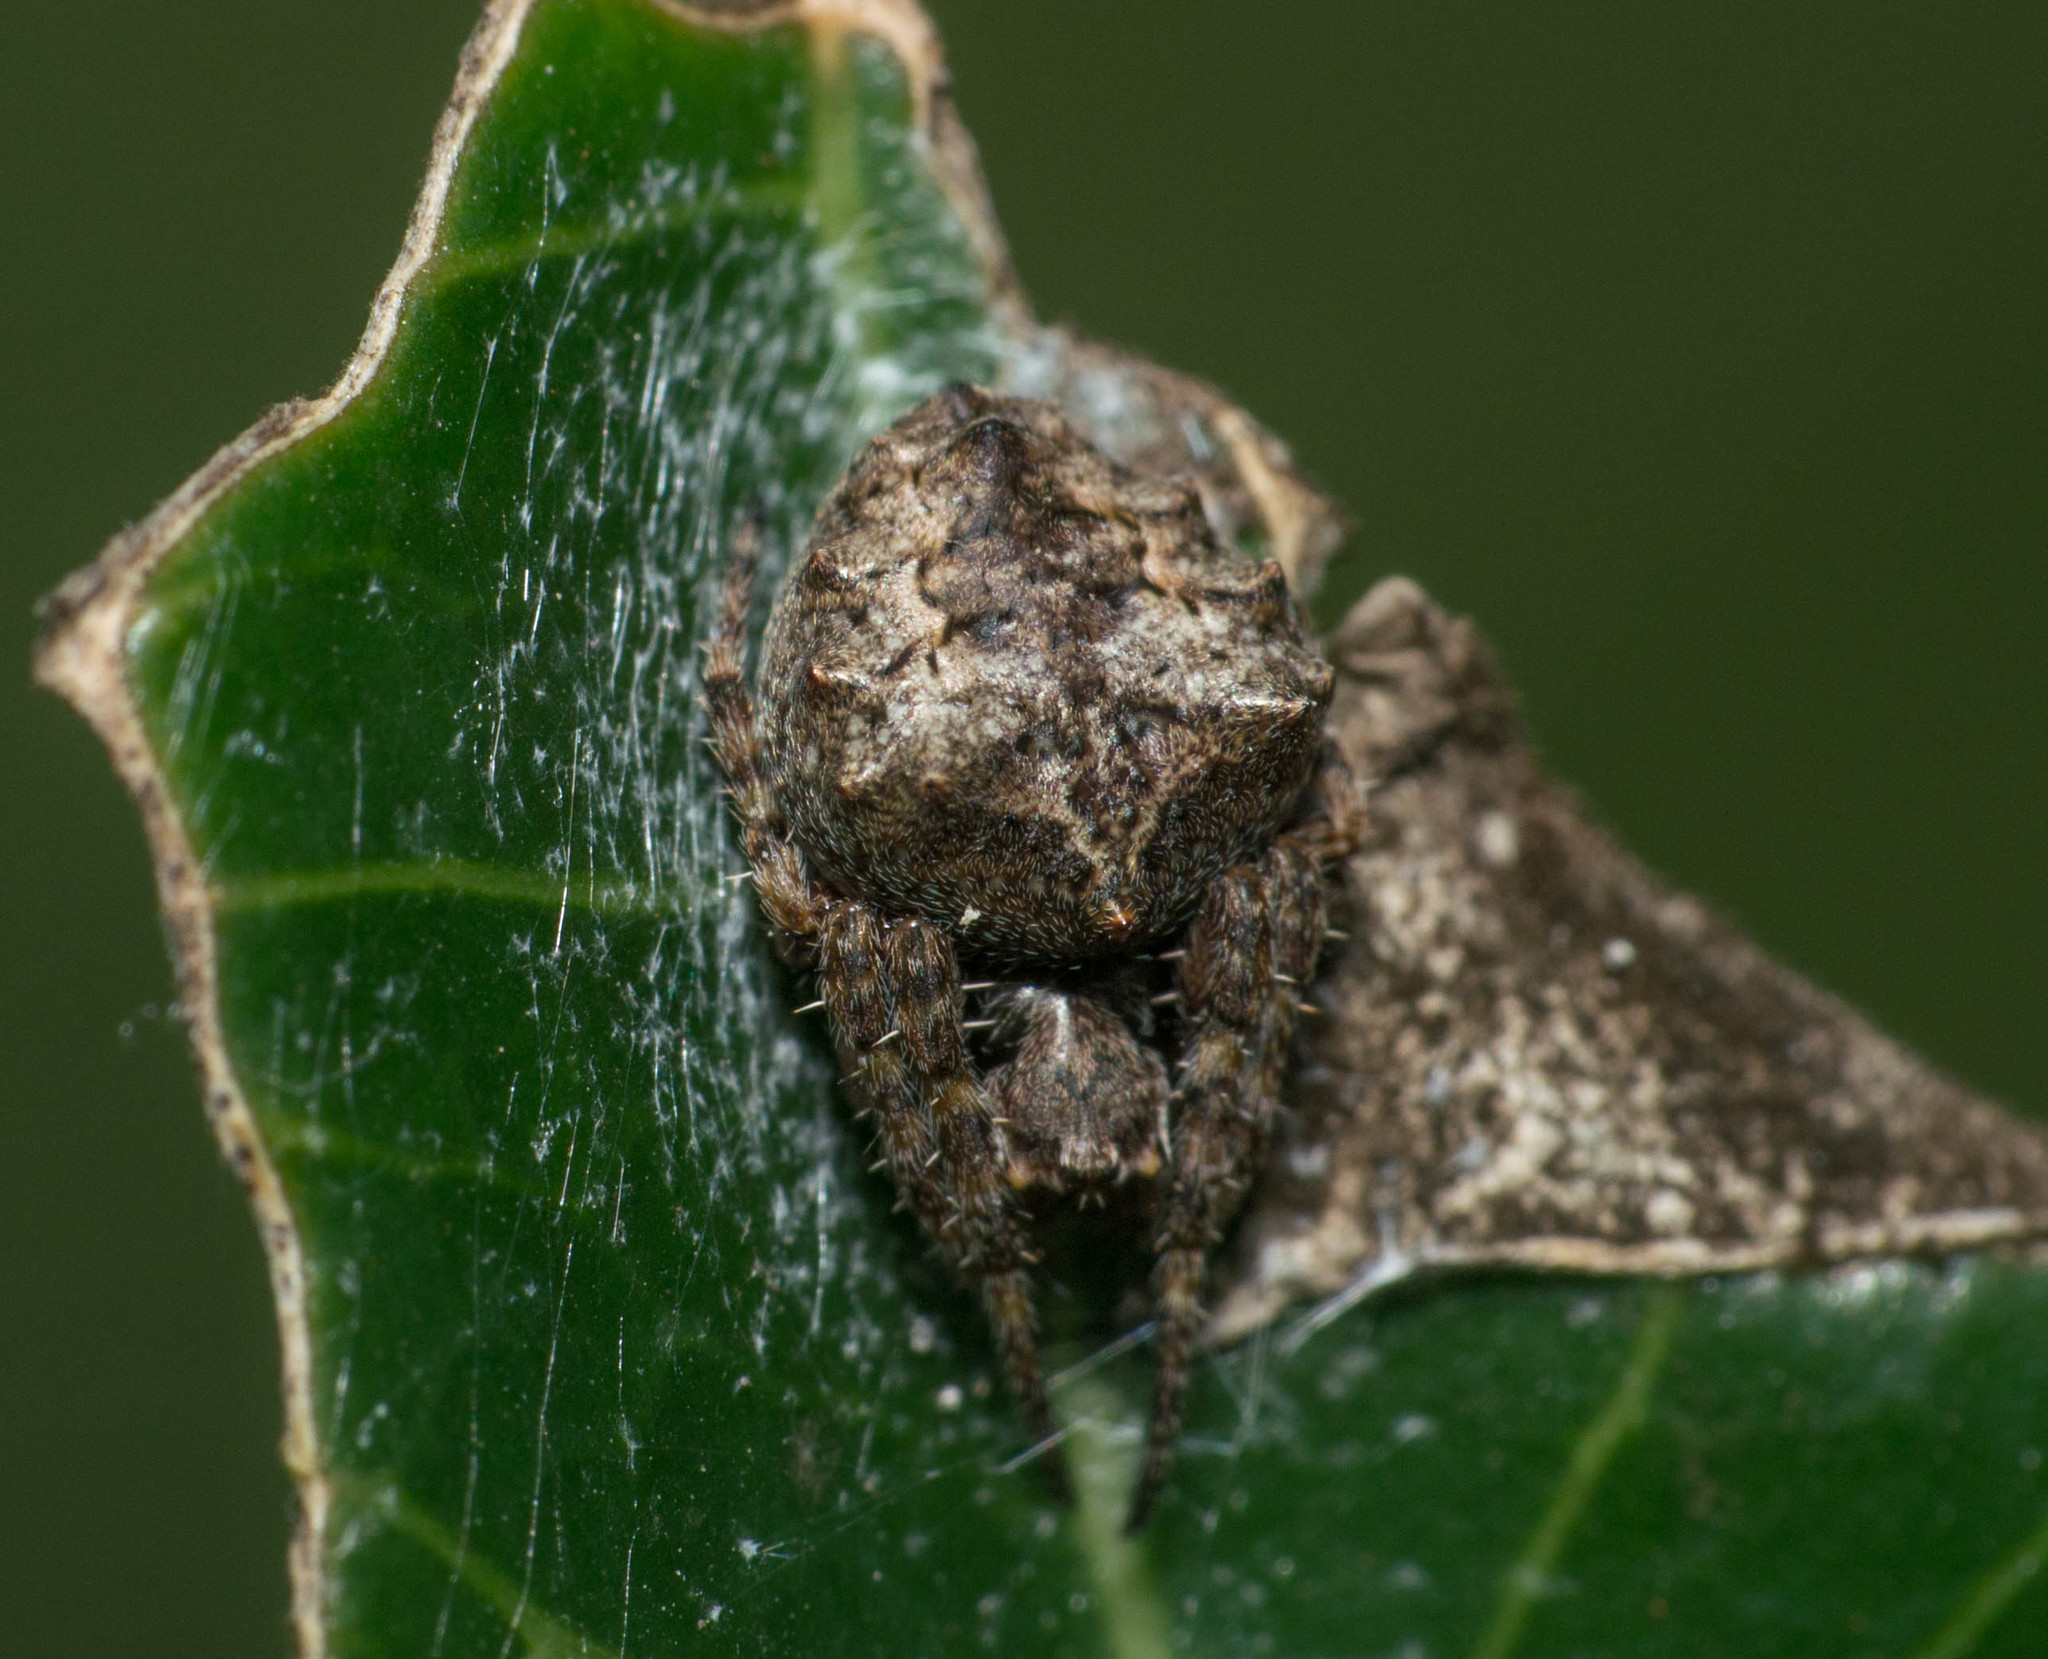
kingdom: Animalia
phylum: Arthropoda
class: Arachnida
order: Araneae
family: Araneidae
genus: Parawixia
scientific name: Parawixia audax
